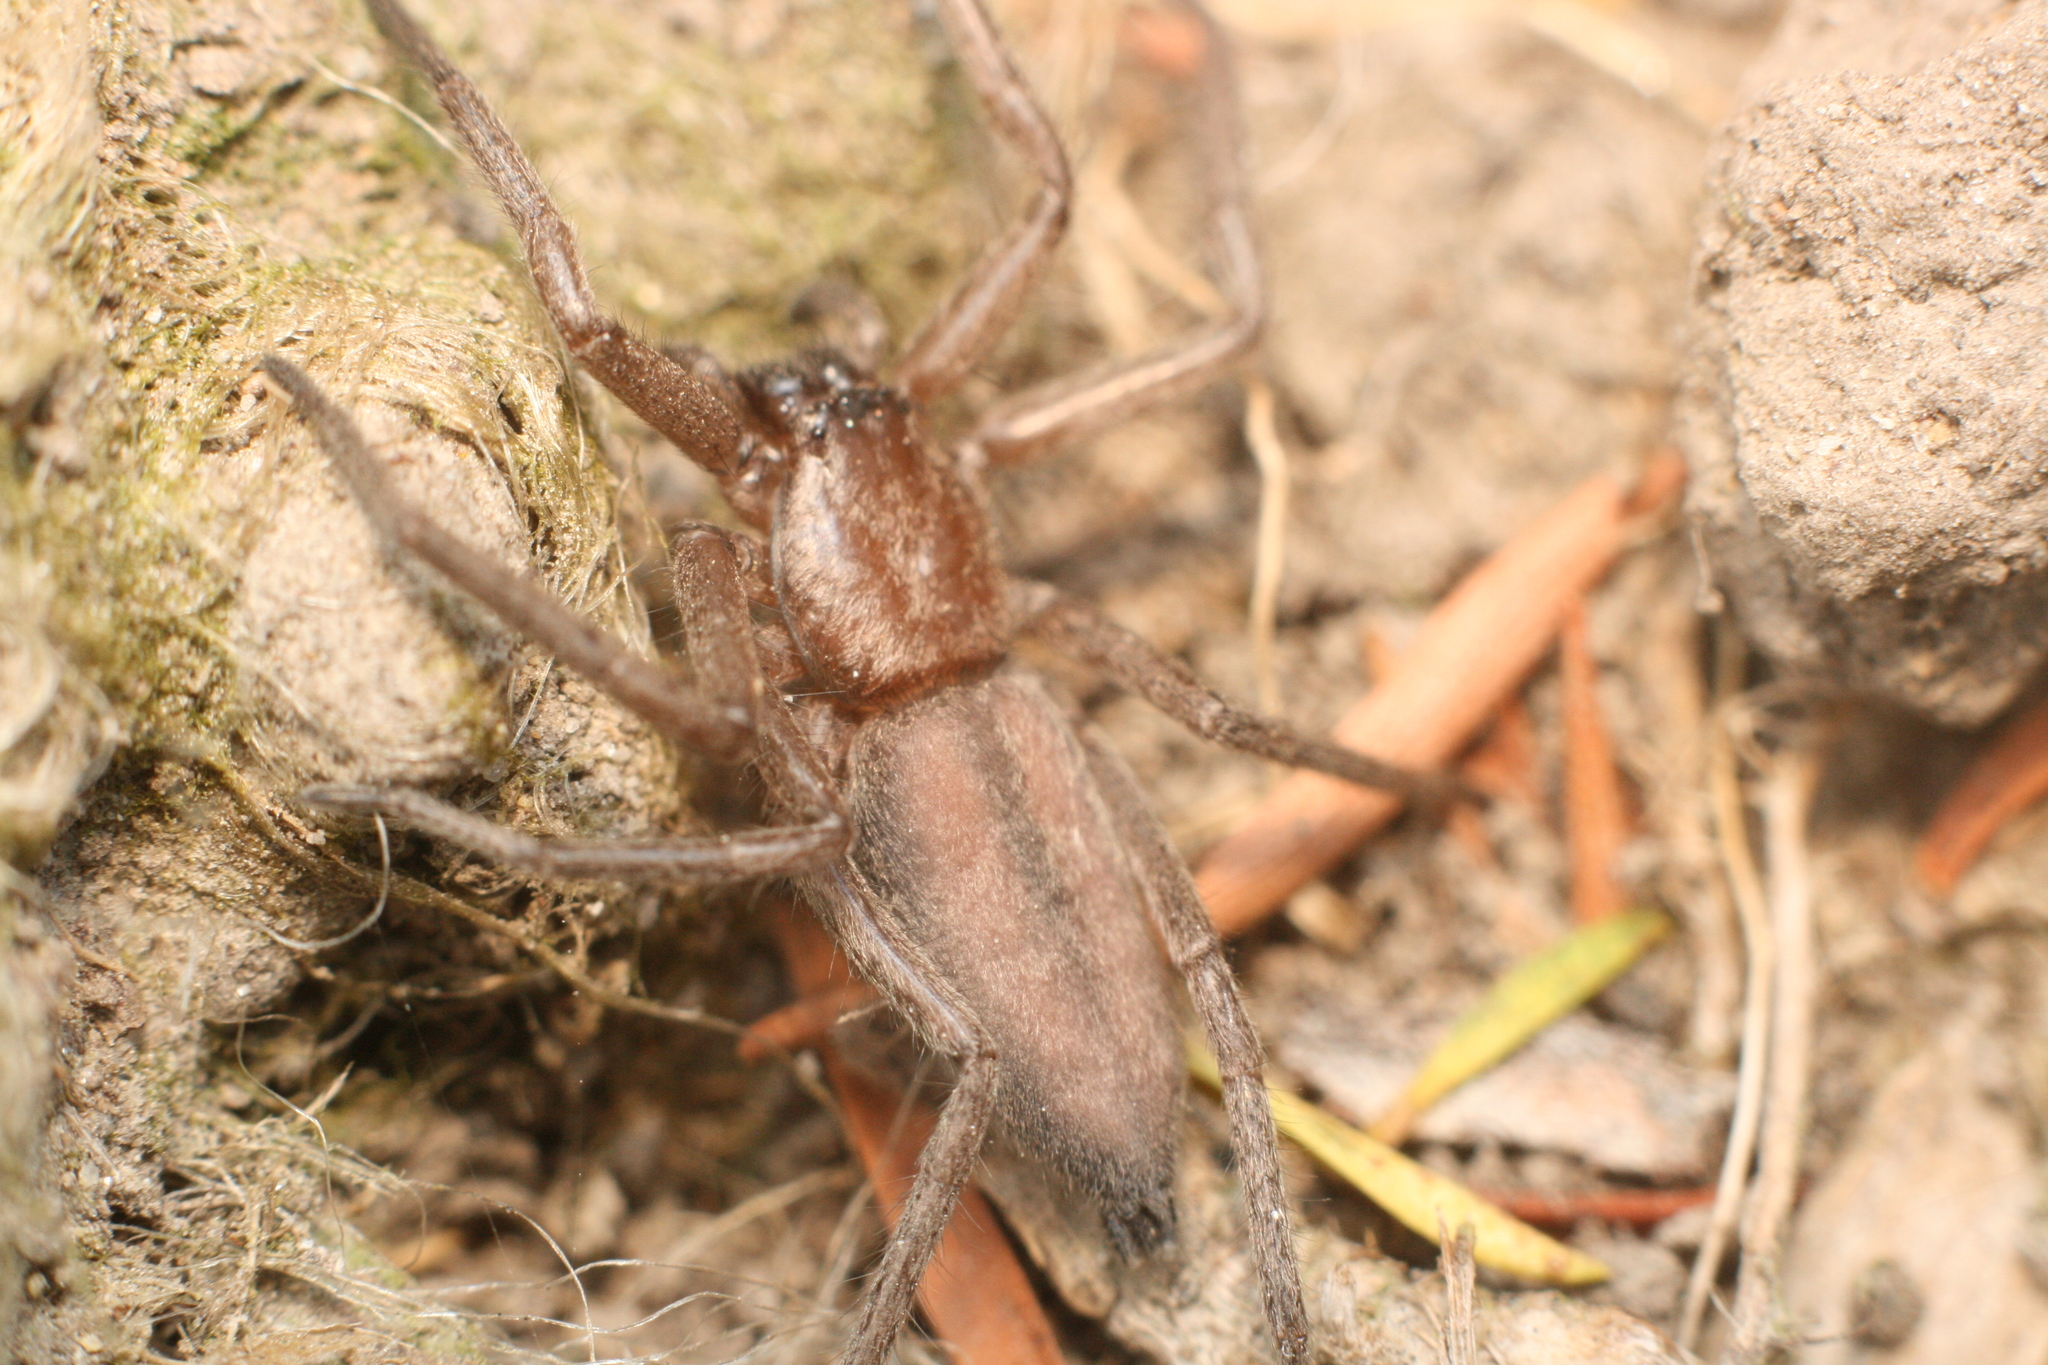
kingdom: Animalia
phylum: Arthropoda
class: Arachnida
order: Araneae
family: Trochanteriidae
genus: Hemicloea
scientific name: Hemicloea rogenhoferi
